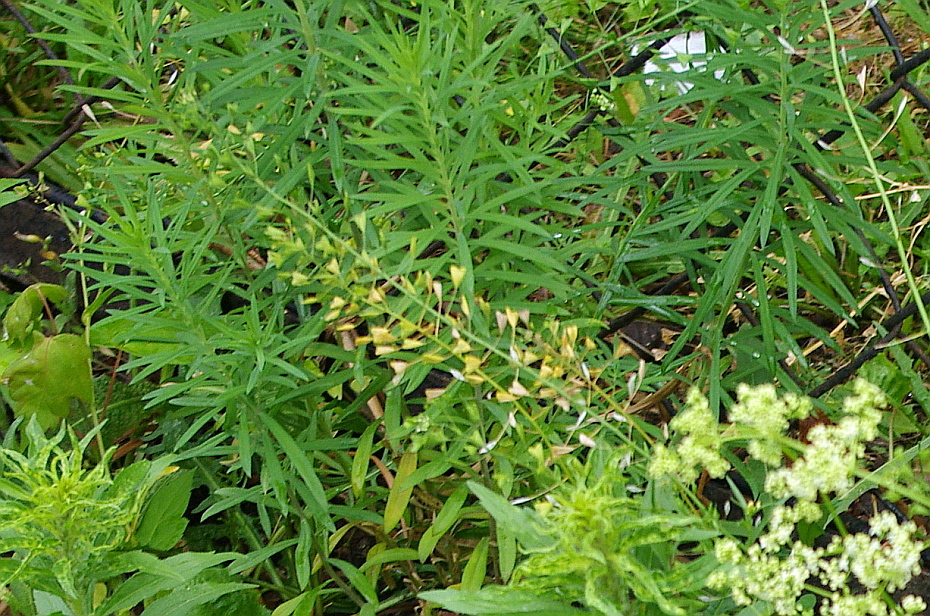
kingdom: Plantae
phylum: Tracheophyta
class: Magnoliopsida
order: Lamiales
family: Plantaginaceae
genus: Linaria
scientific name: Linaria vulgaris
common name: Butter and eggs
